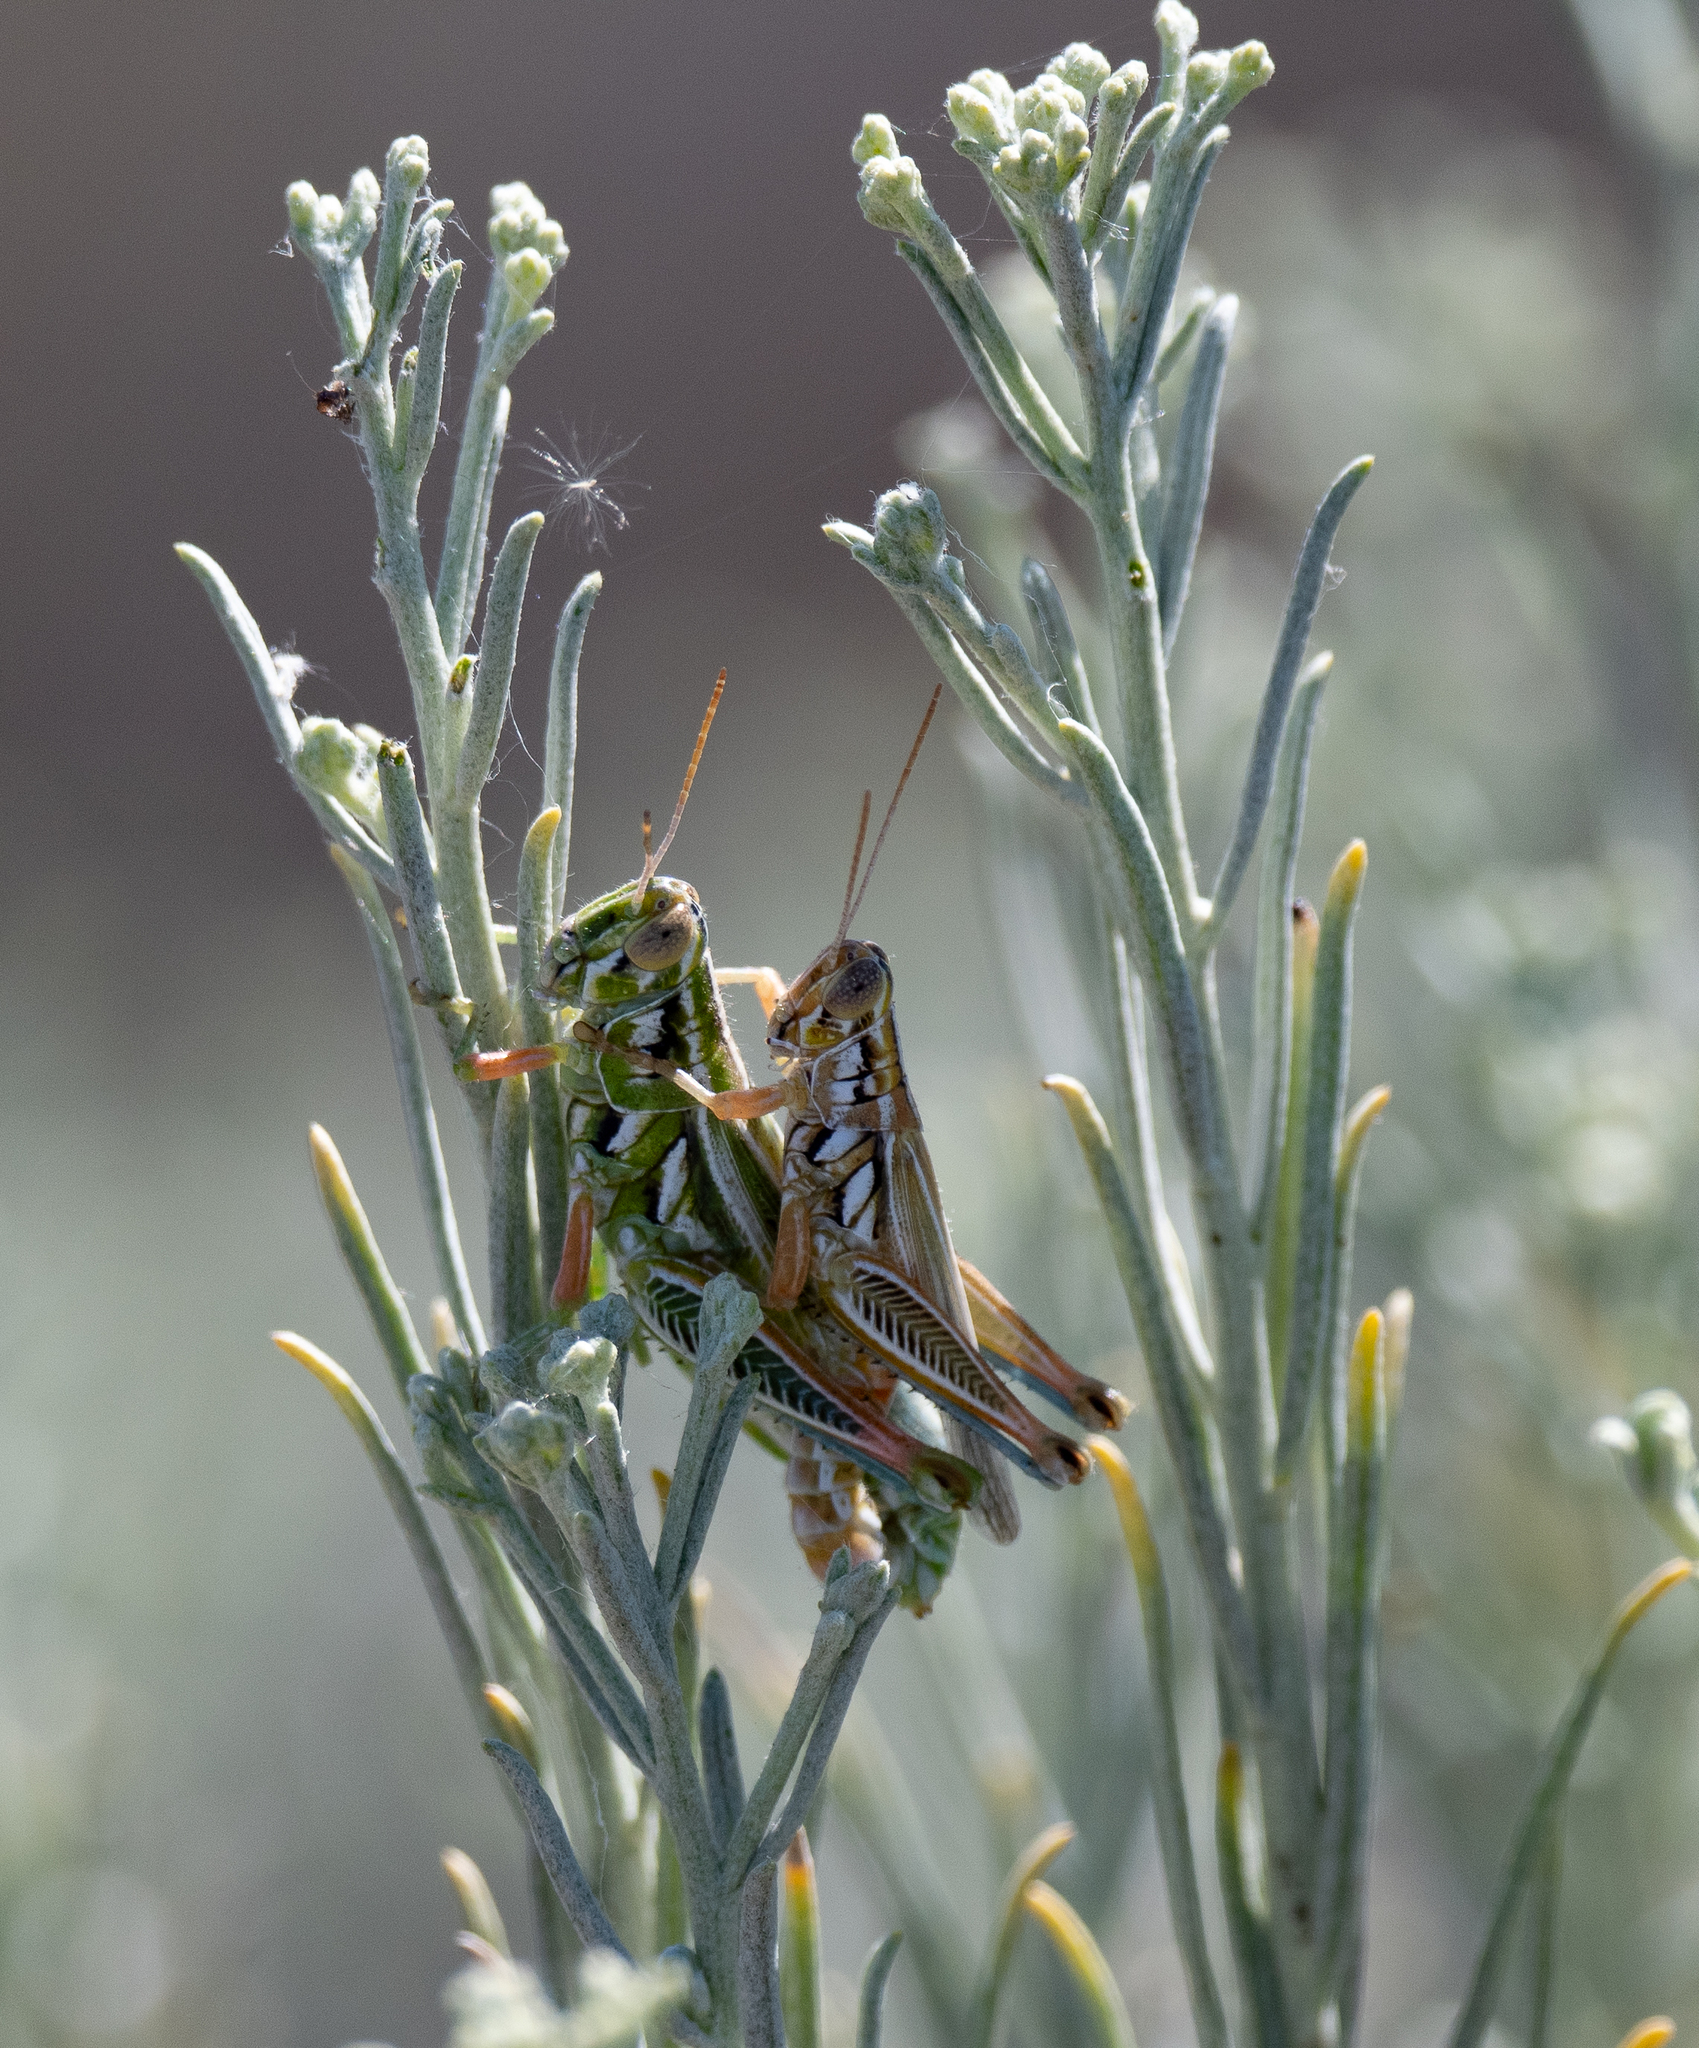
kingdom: Animalia
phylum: Arthropoda
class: Insecta
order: Orthoptera
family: Acrididae
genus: Hesperotettix
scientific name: Hesperotettix viridis
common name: Meadow purple-striped grasshopper
